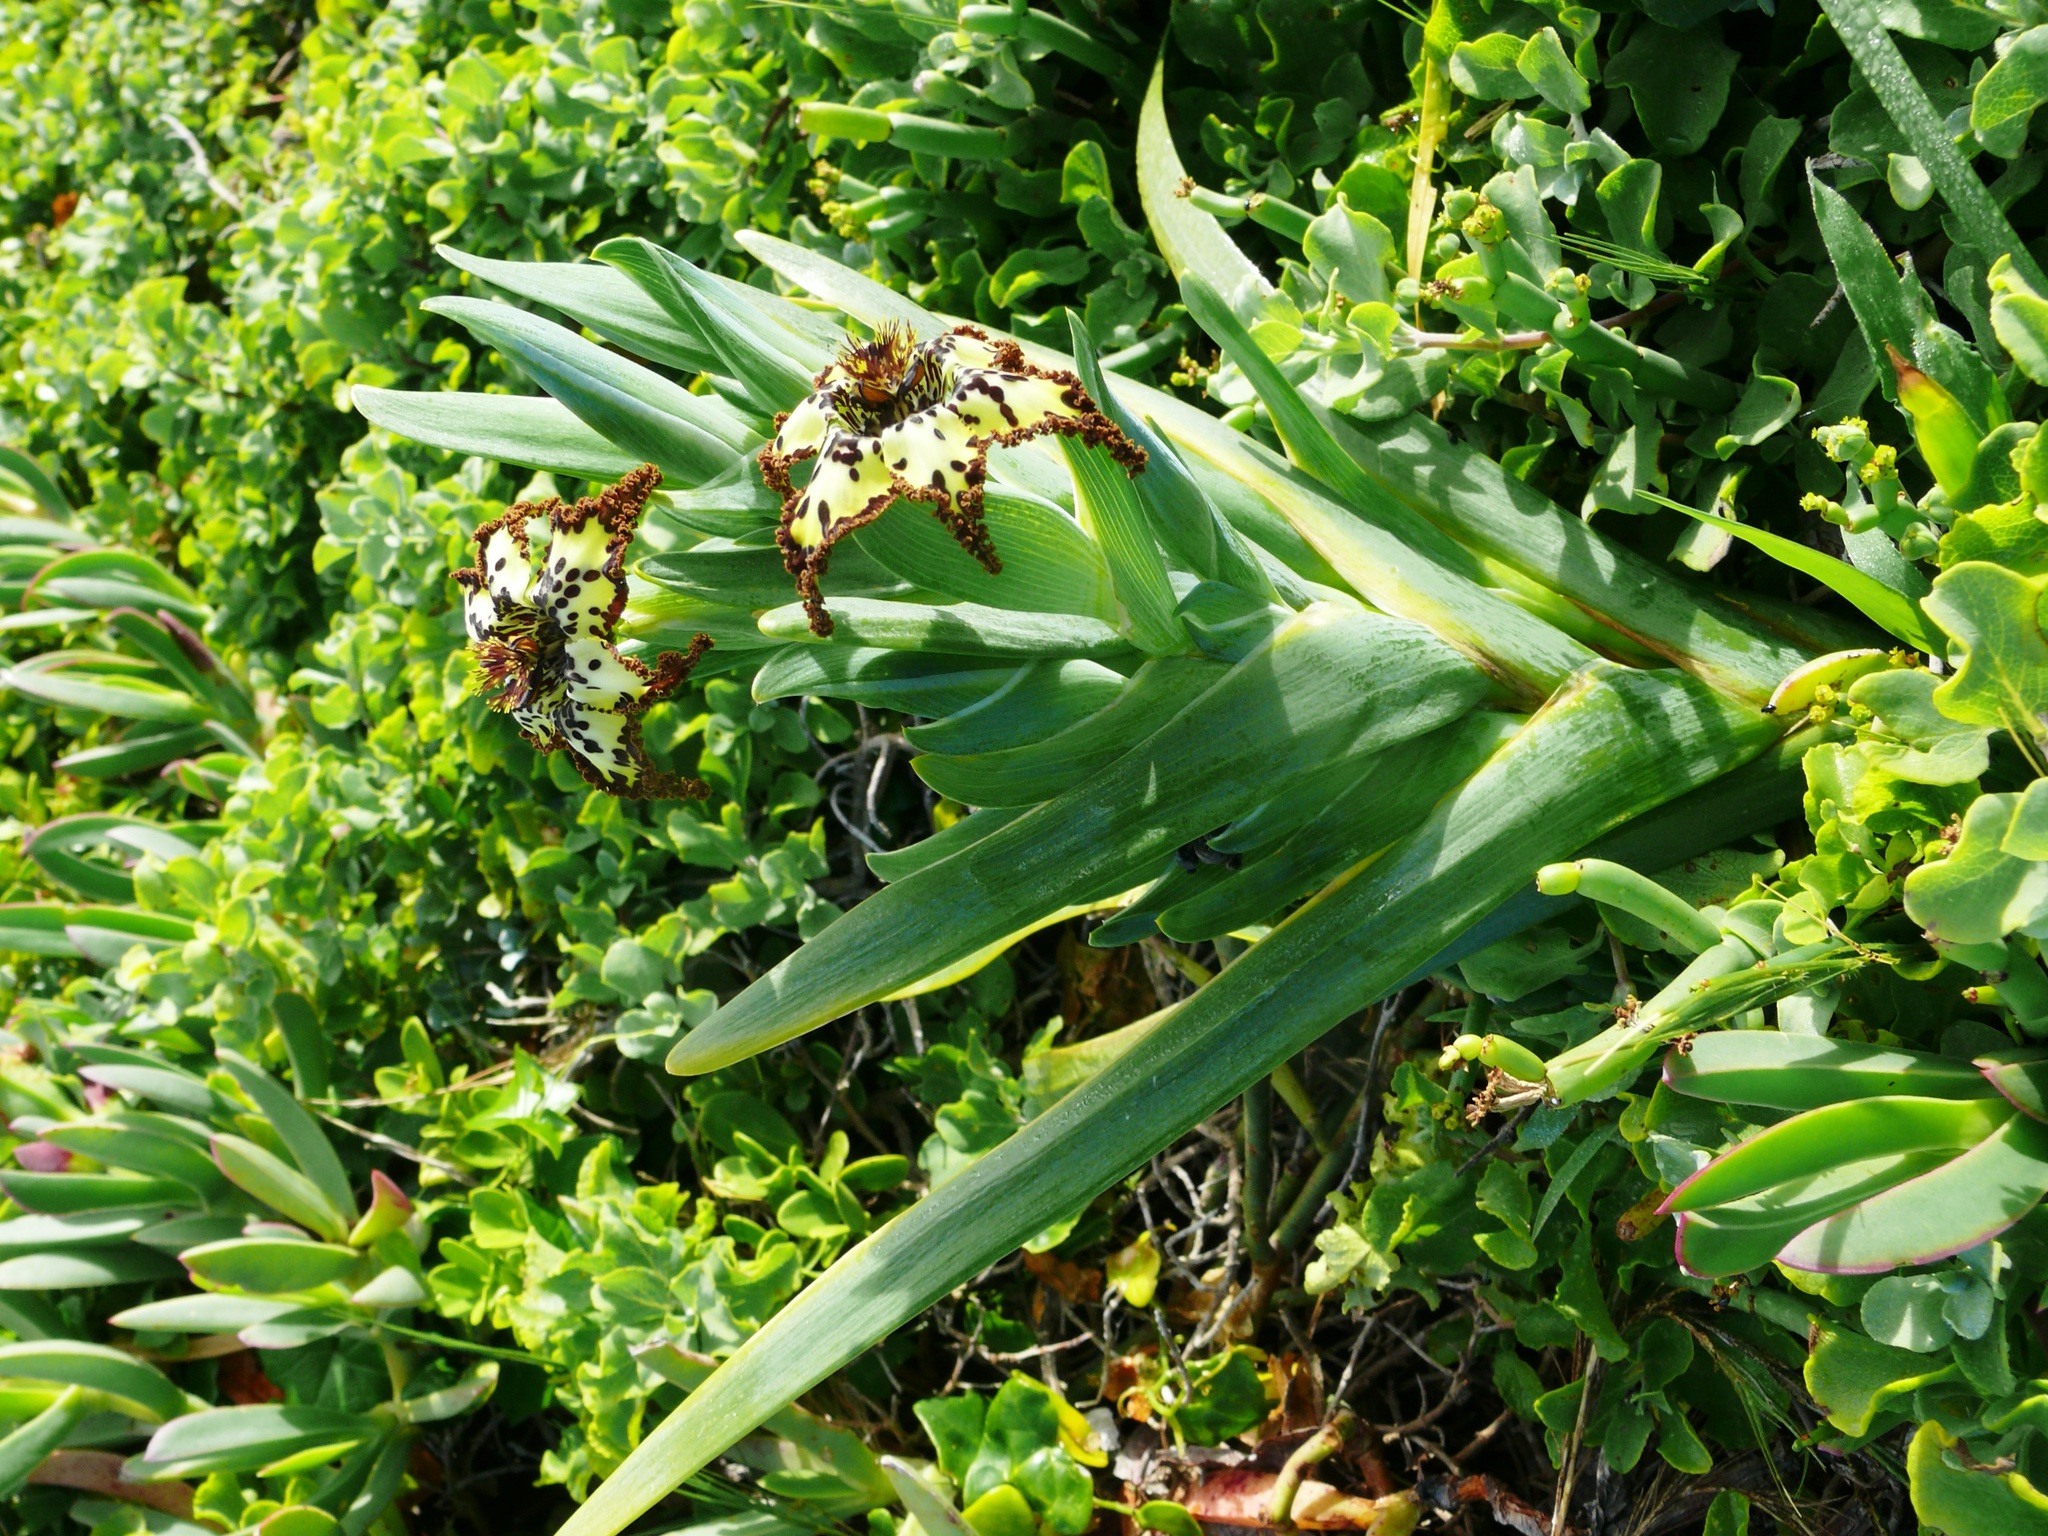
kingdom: Plantae
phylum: Tracheophyta
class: Liliopsida
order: Asparagales
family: Iridaceae
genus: Ferraria
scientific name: Ferraria crispa
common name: Black-flag
